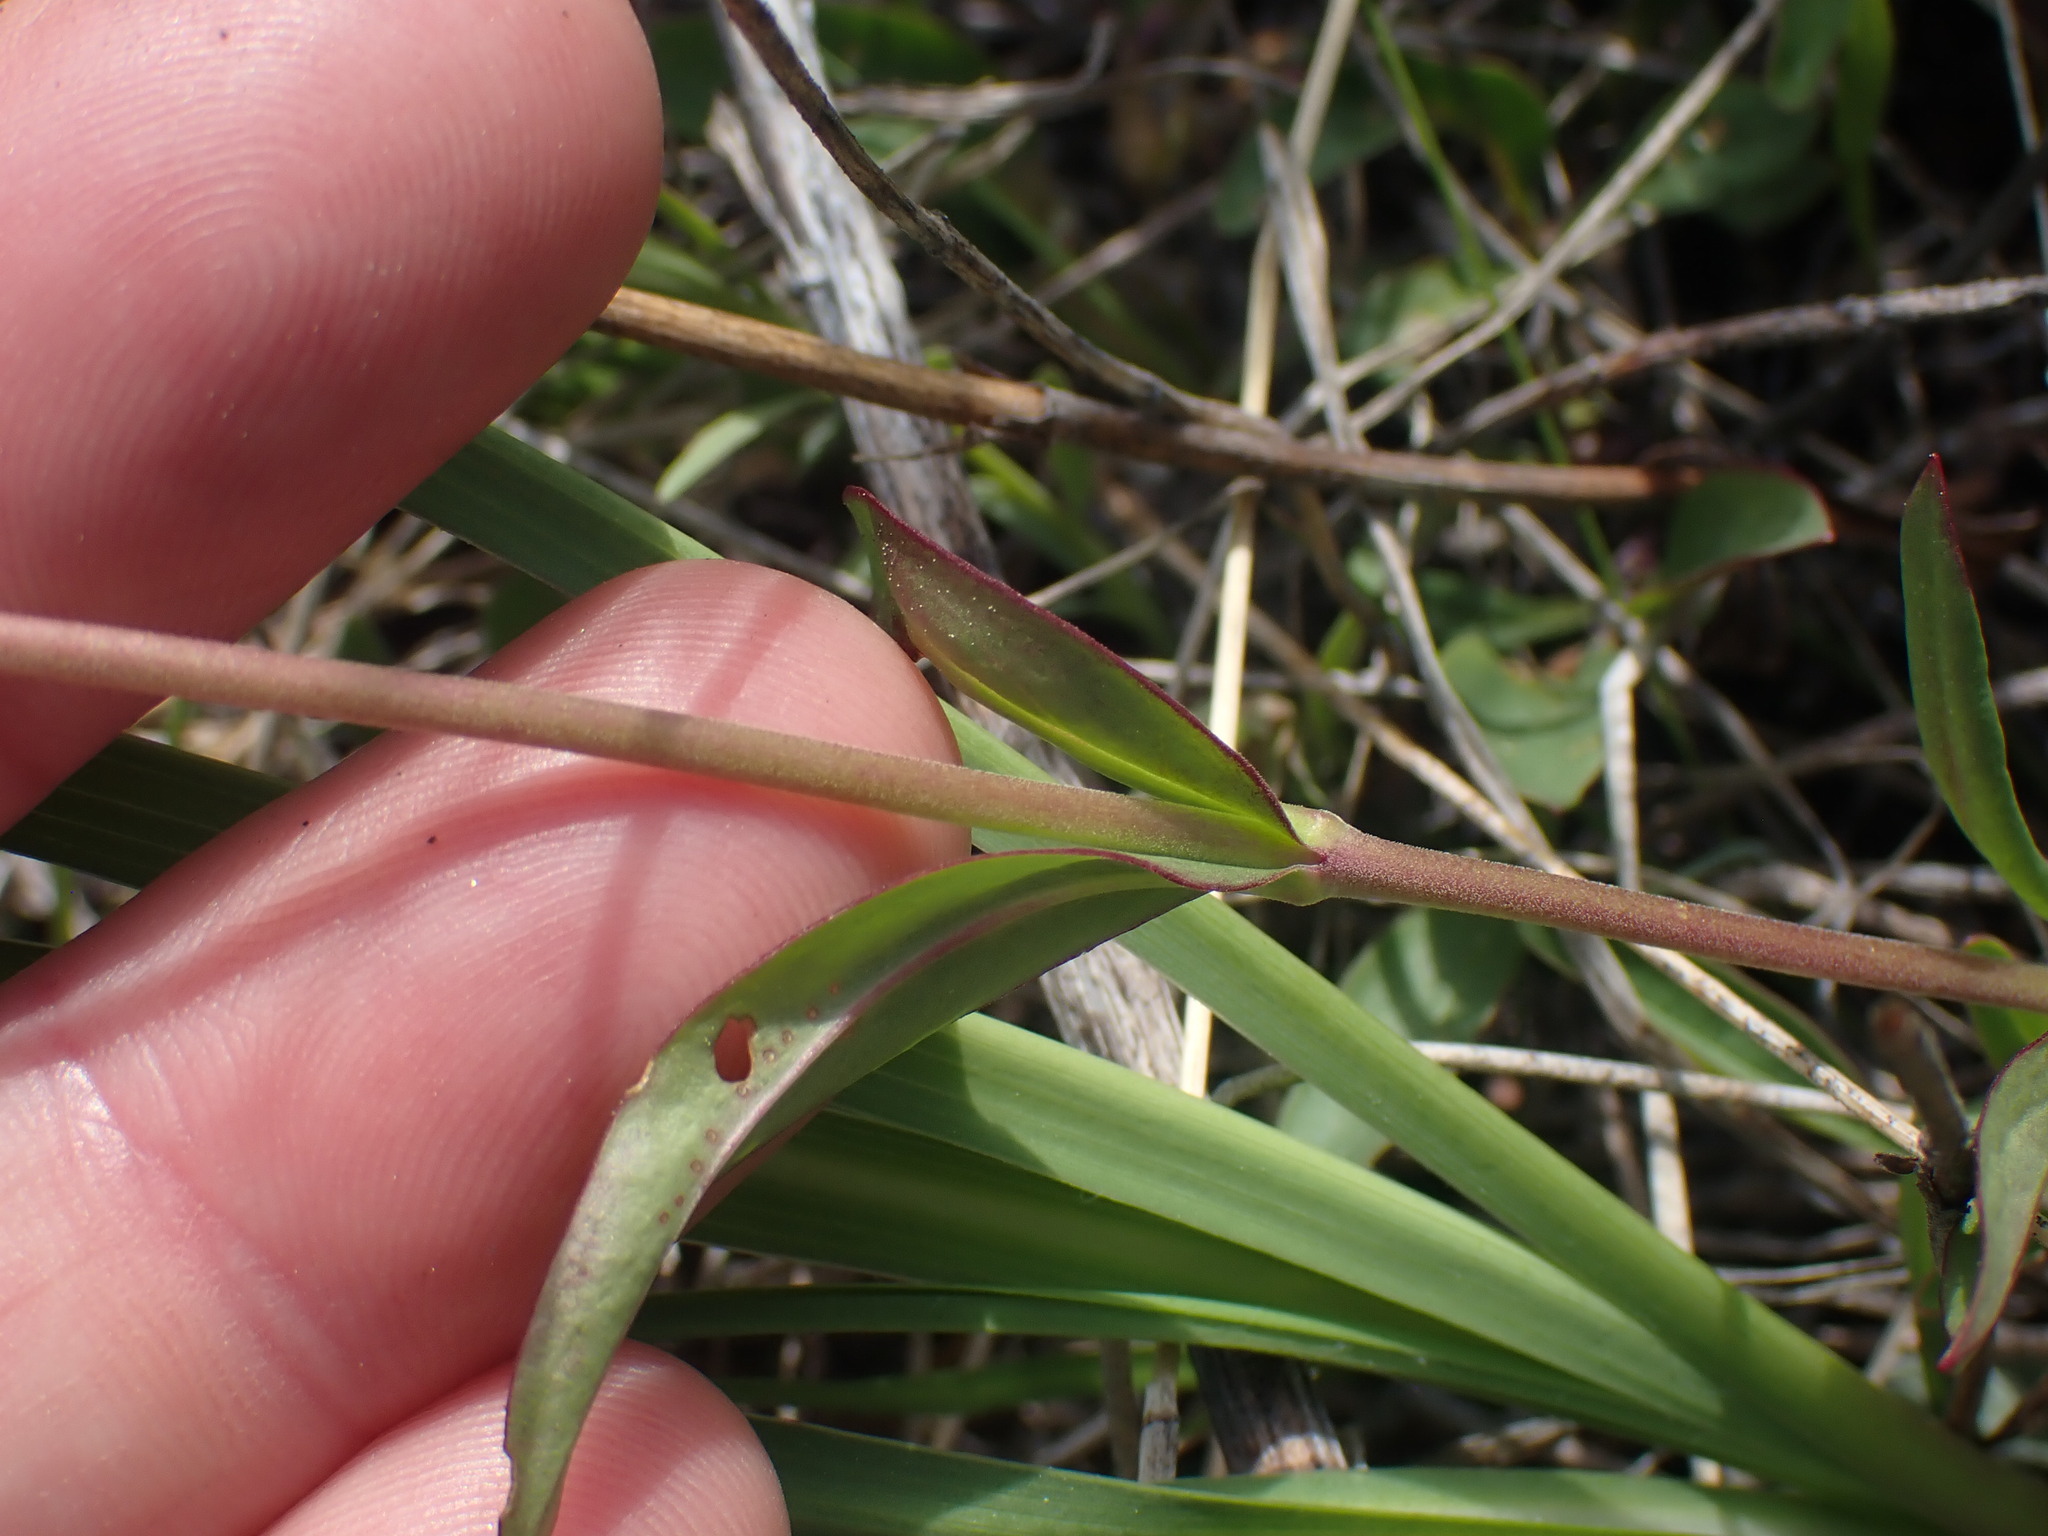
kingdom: Plantae
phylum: Tracheophyta
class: Magnoliopsida
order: Lamiales
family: Plantaginaceae
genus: Penstemon
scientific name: Penstemon procerus
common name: Small-flower penstemon
